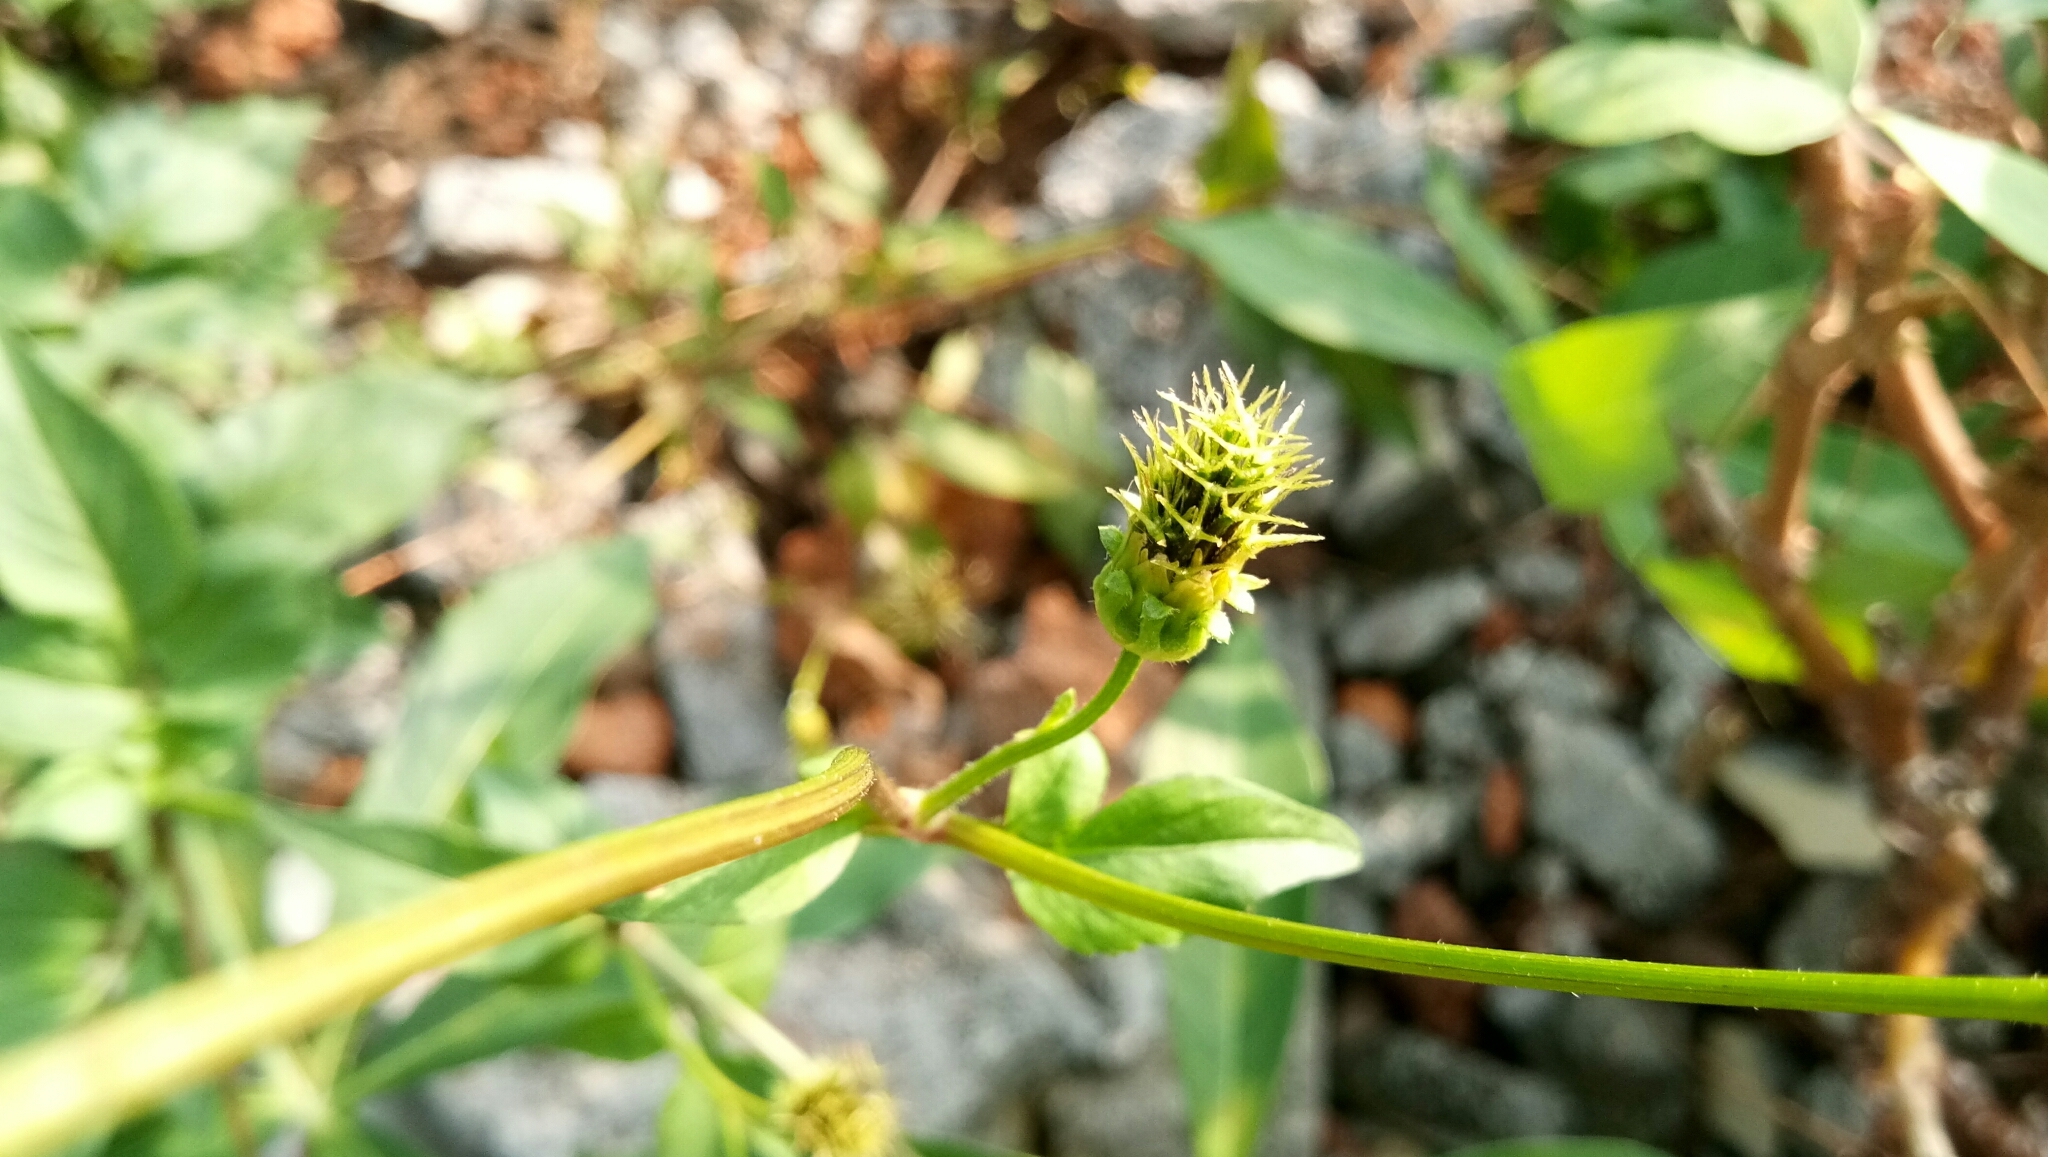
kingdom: Plantae
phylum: Tracheophyta
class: Magnoliopsida
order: Asterales
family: Asteraceae
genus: Bidens
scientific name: Bidens pilosa
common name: Black-jack
